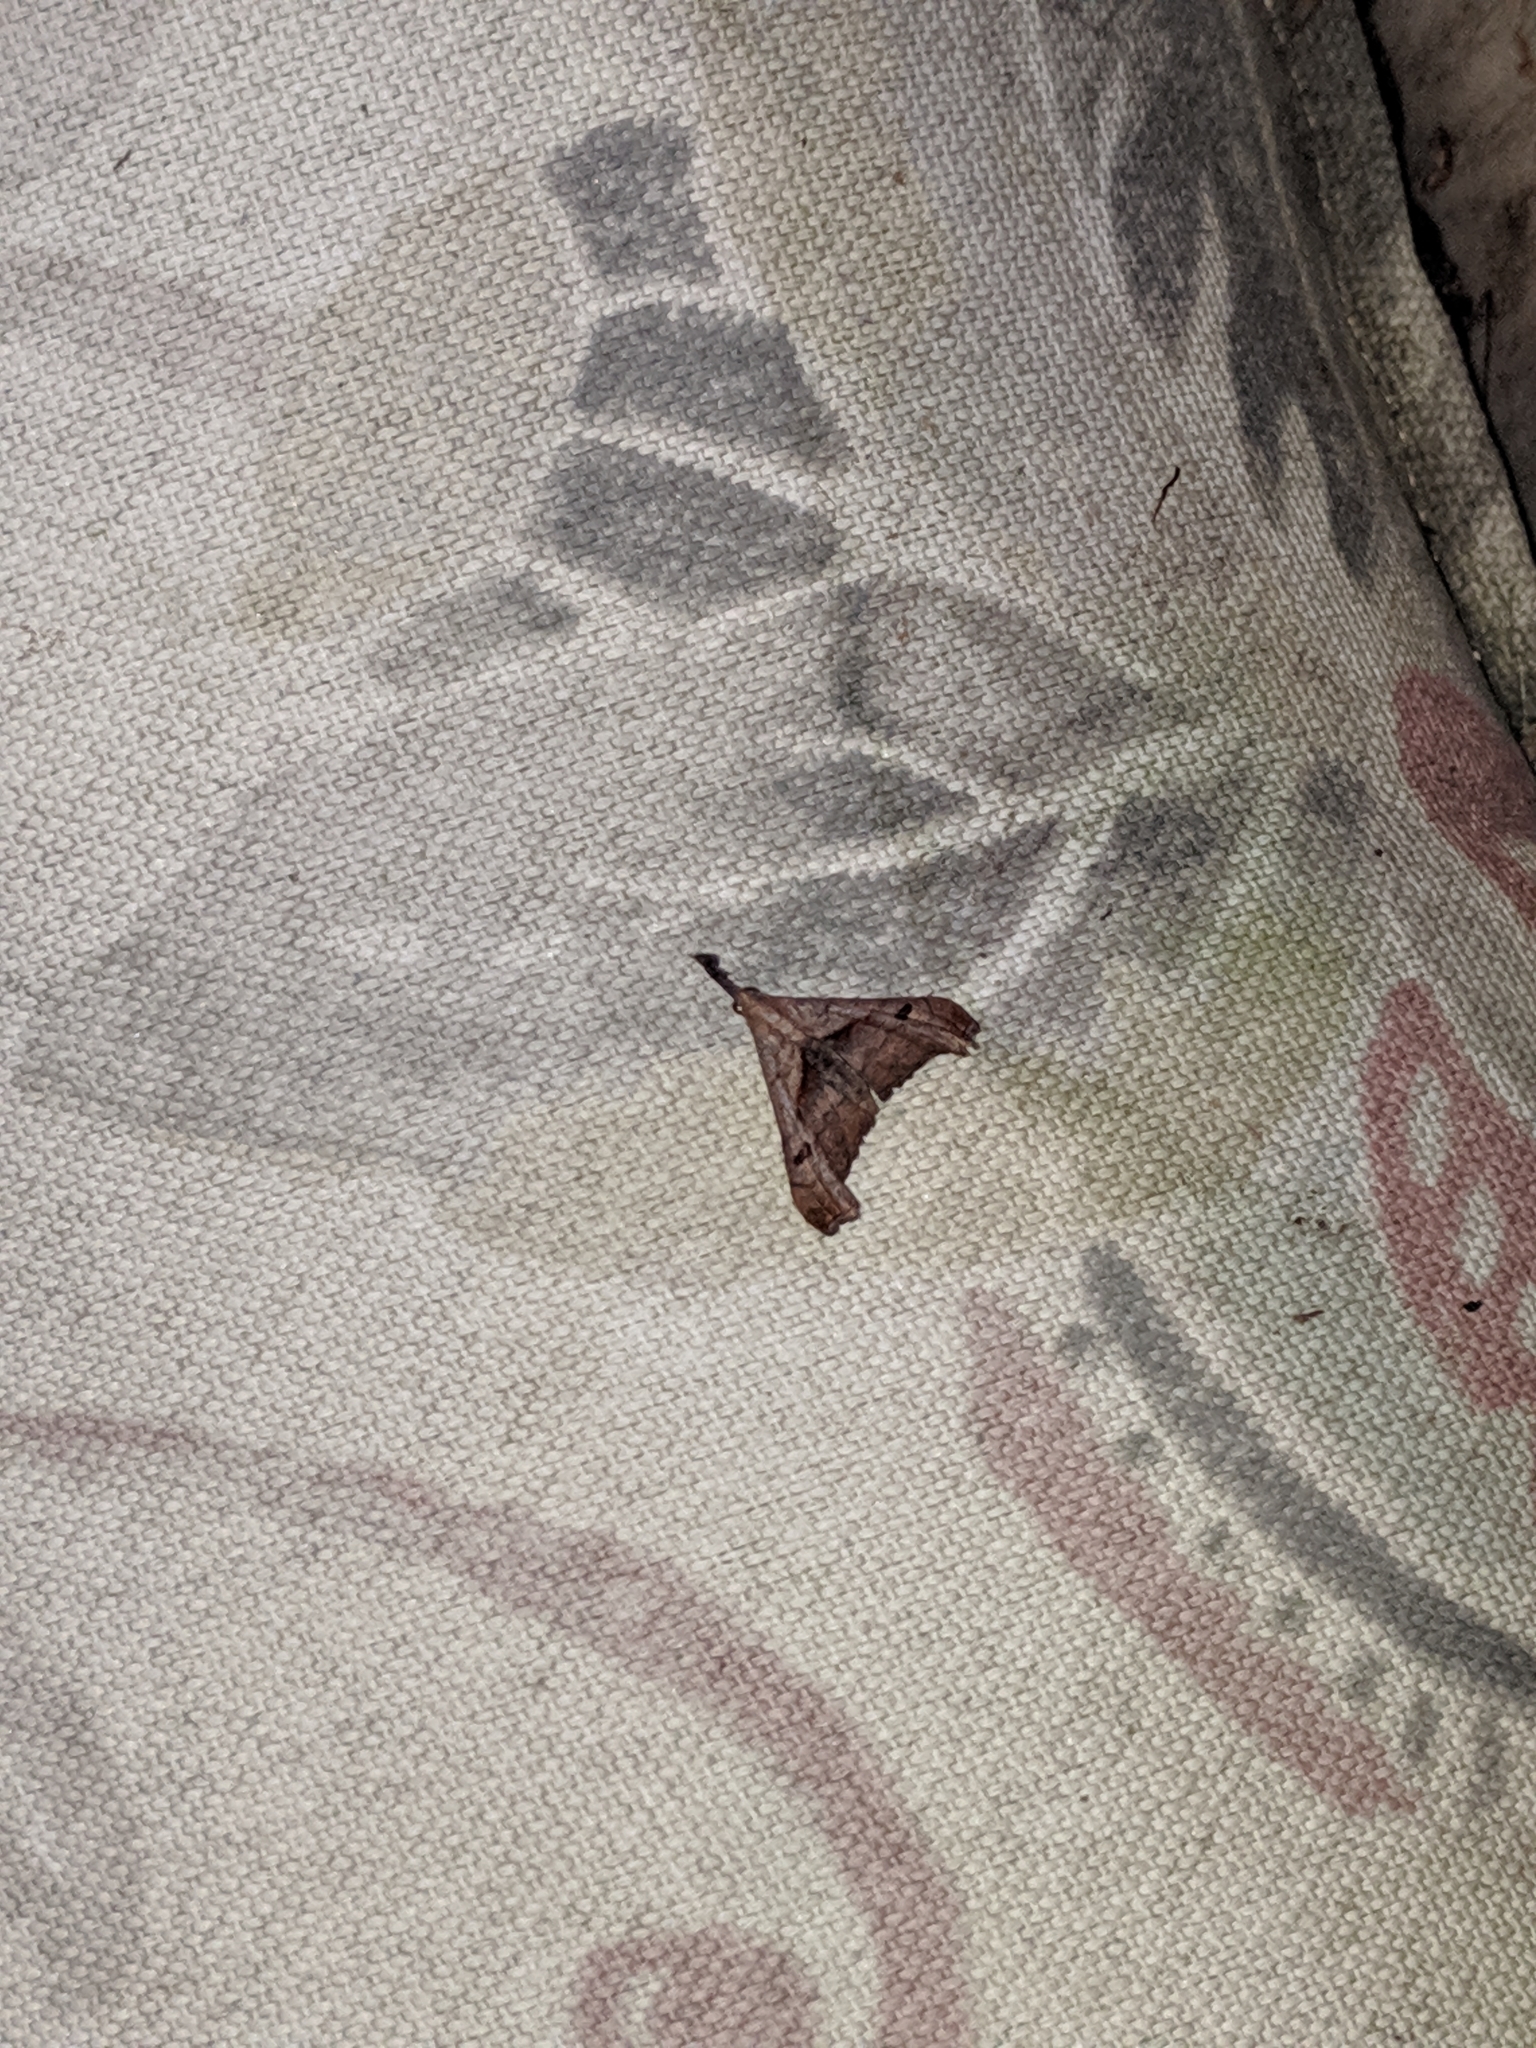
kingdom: Animalia
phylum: Arthropoda
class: Insecta
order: Lepidoptera
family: Erebidae
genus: Palthis
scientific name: Palthis angulalis
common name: Dark-spotted palthis moth
